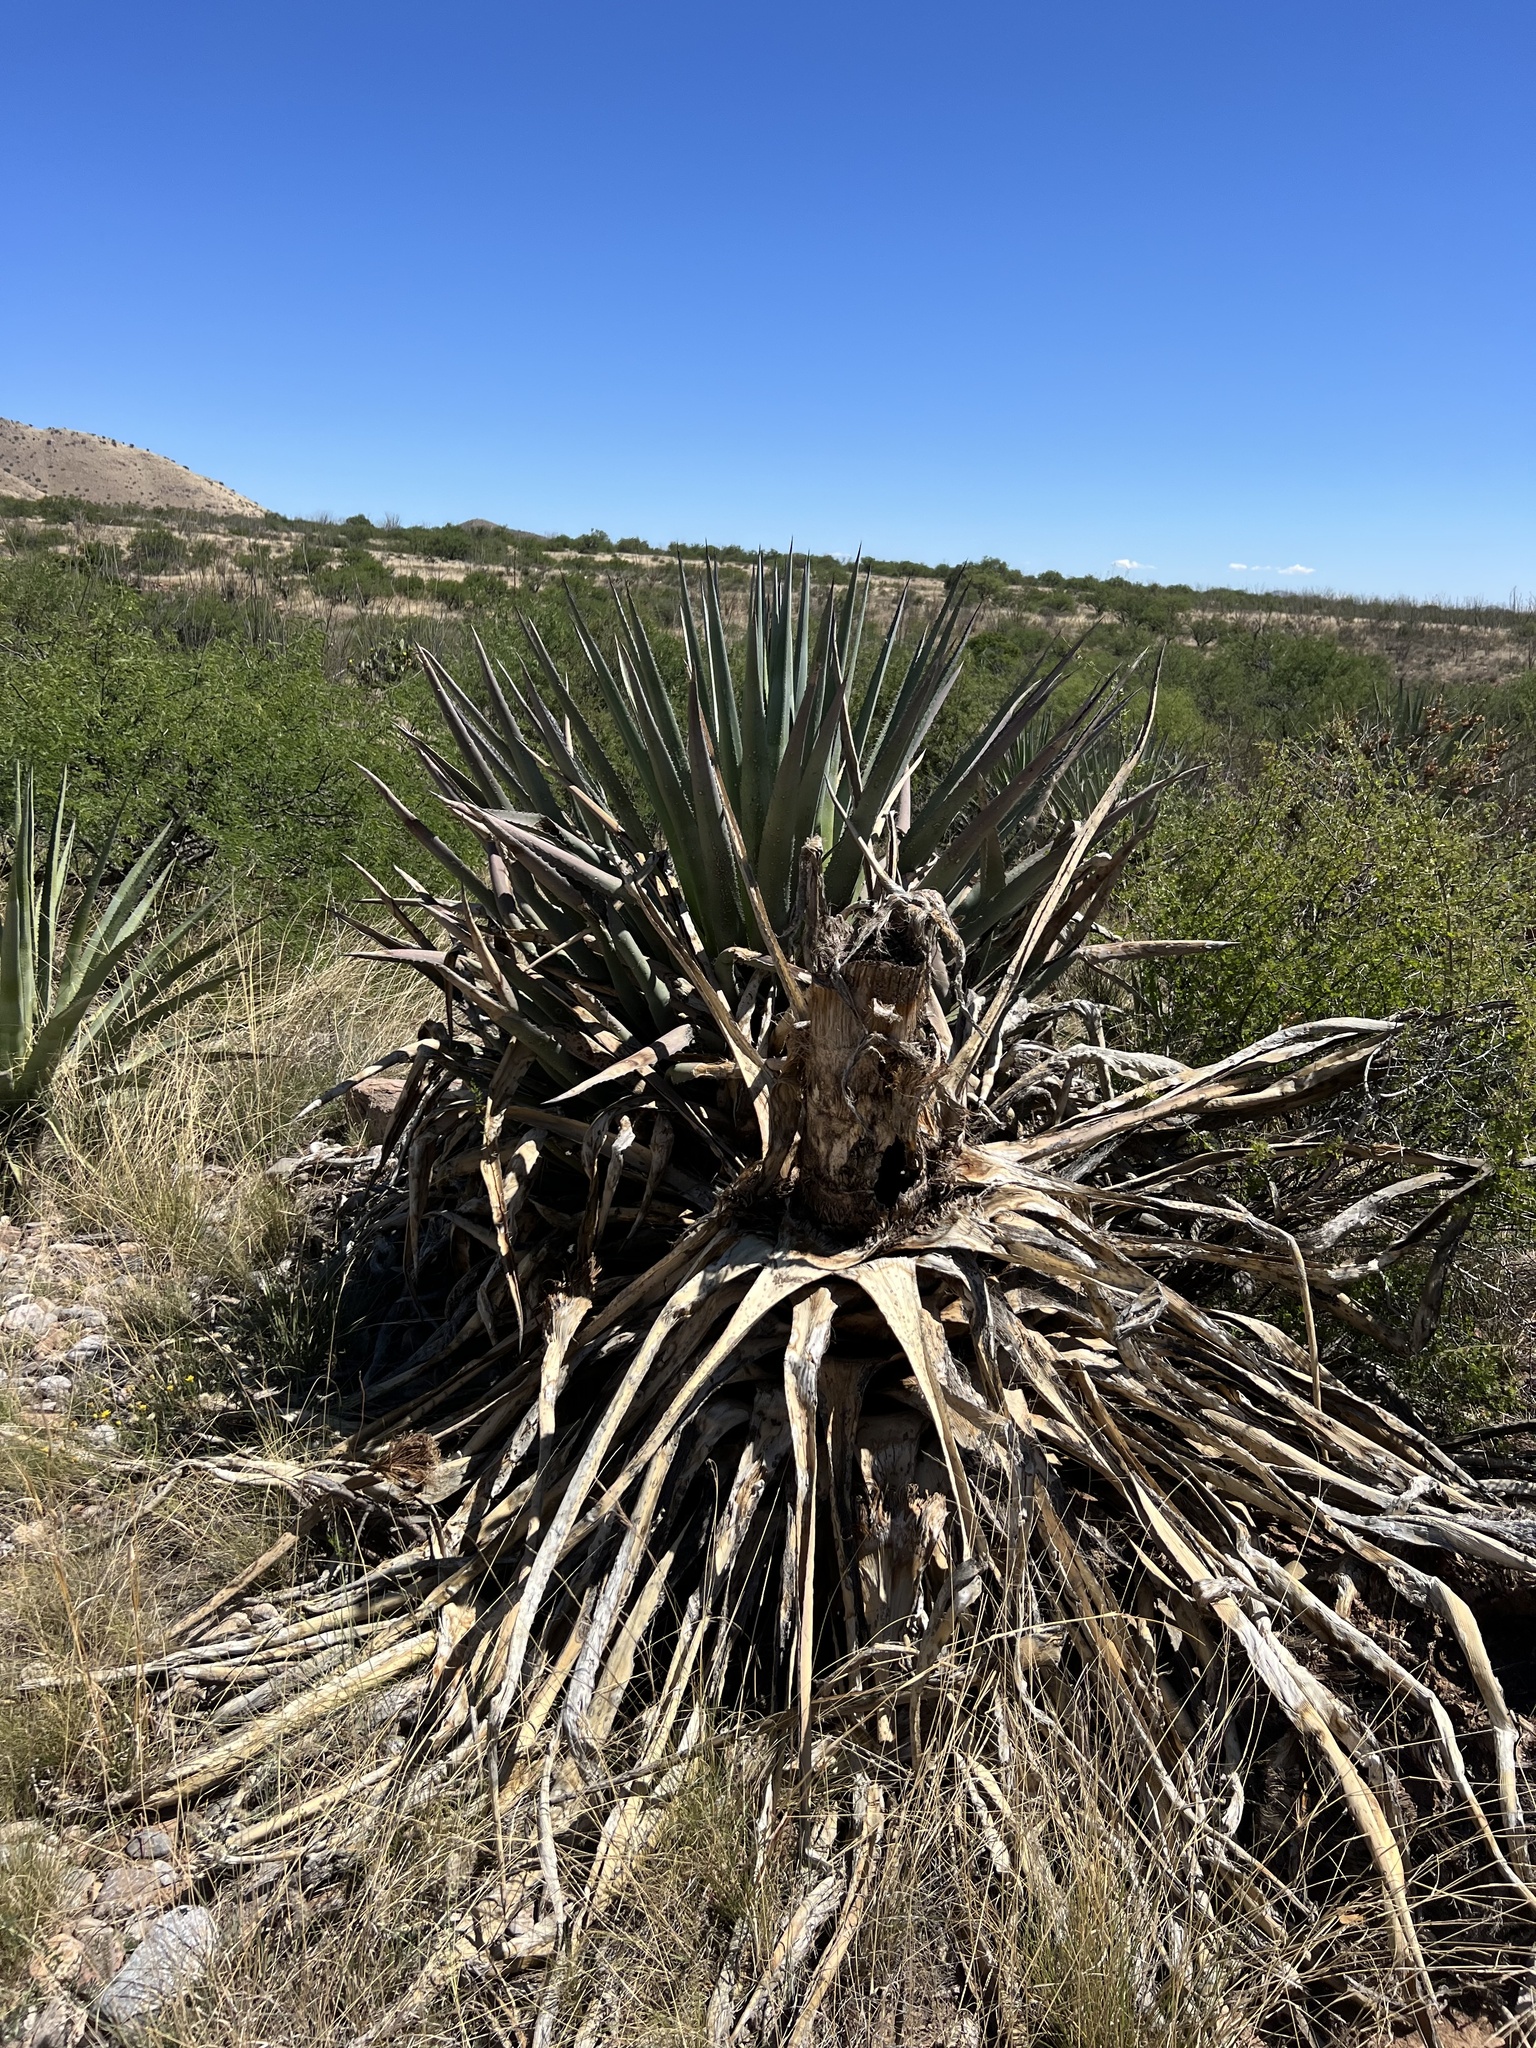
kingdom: Plantae
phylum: Tracheophyta
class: Liliopsida
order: Asparagales
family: Asparagaceae
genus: Agave
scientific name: Agave palmeri
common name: Palmer agave
